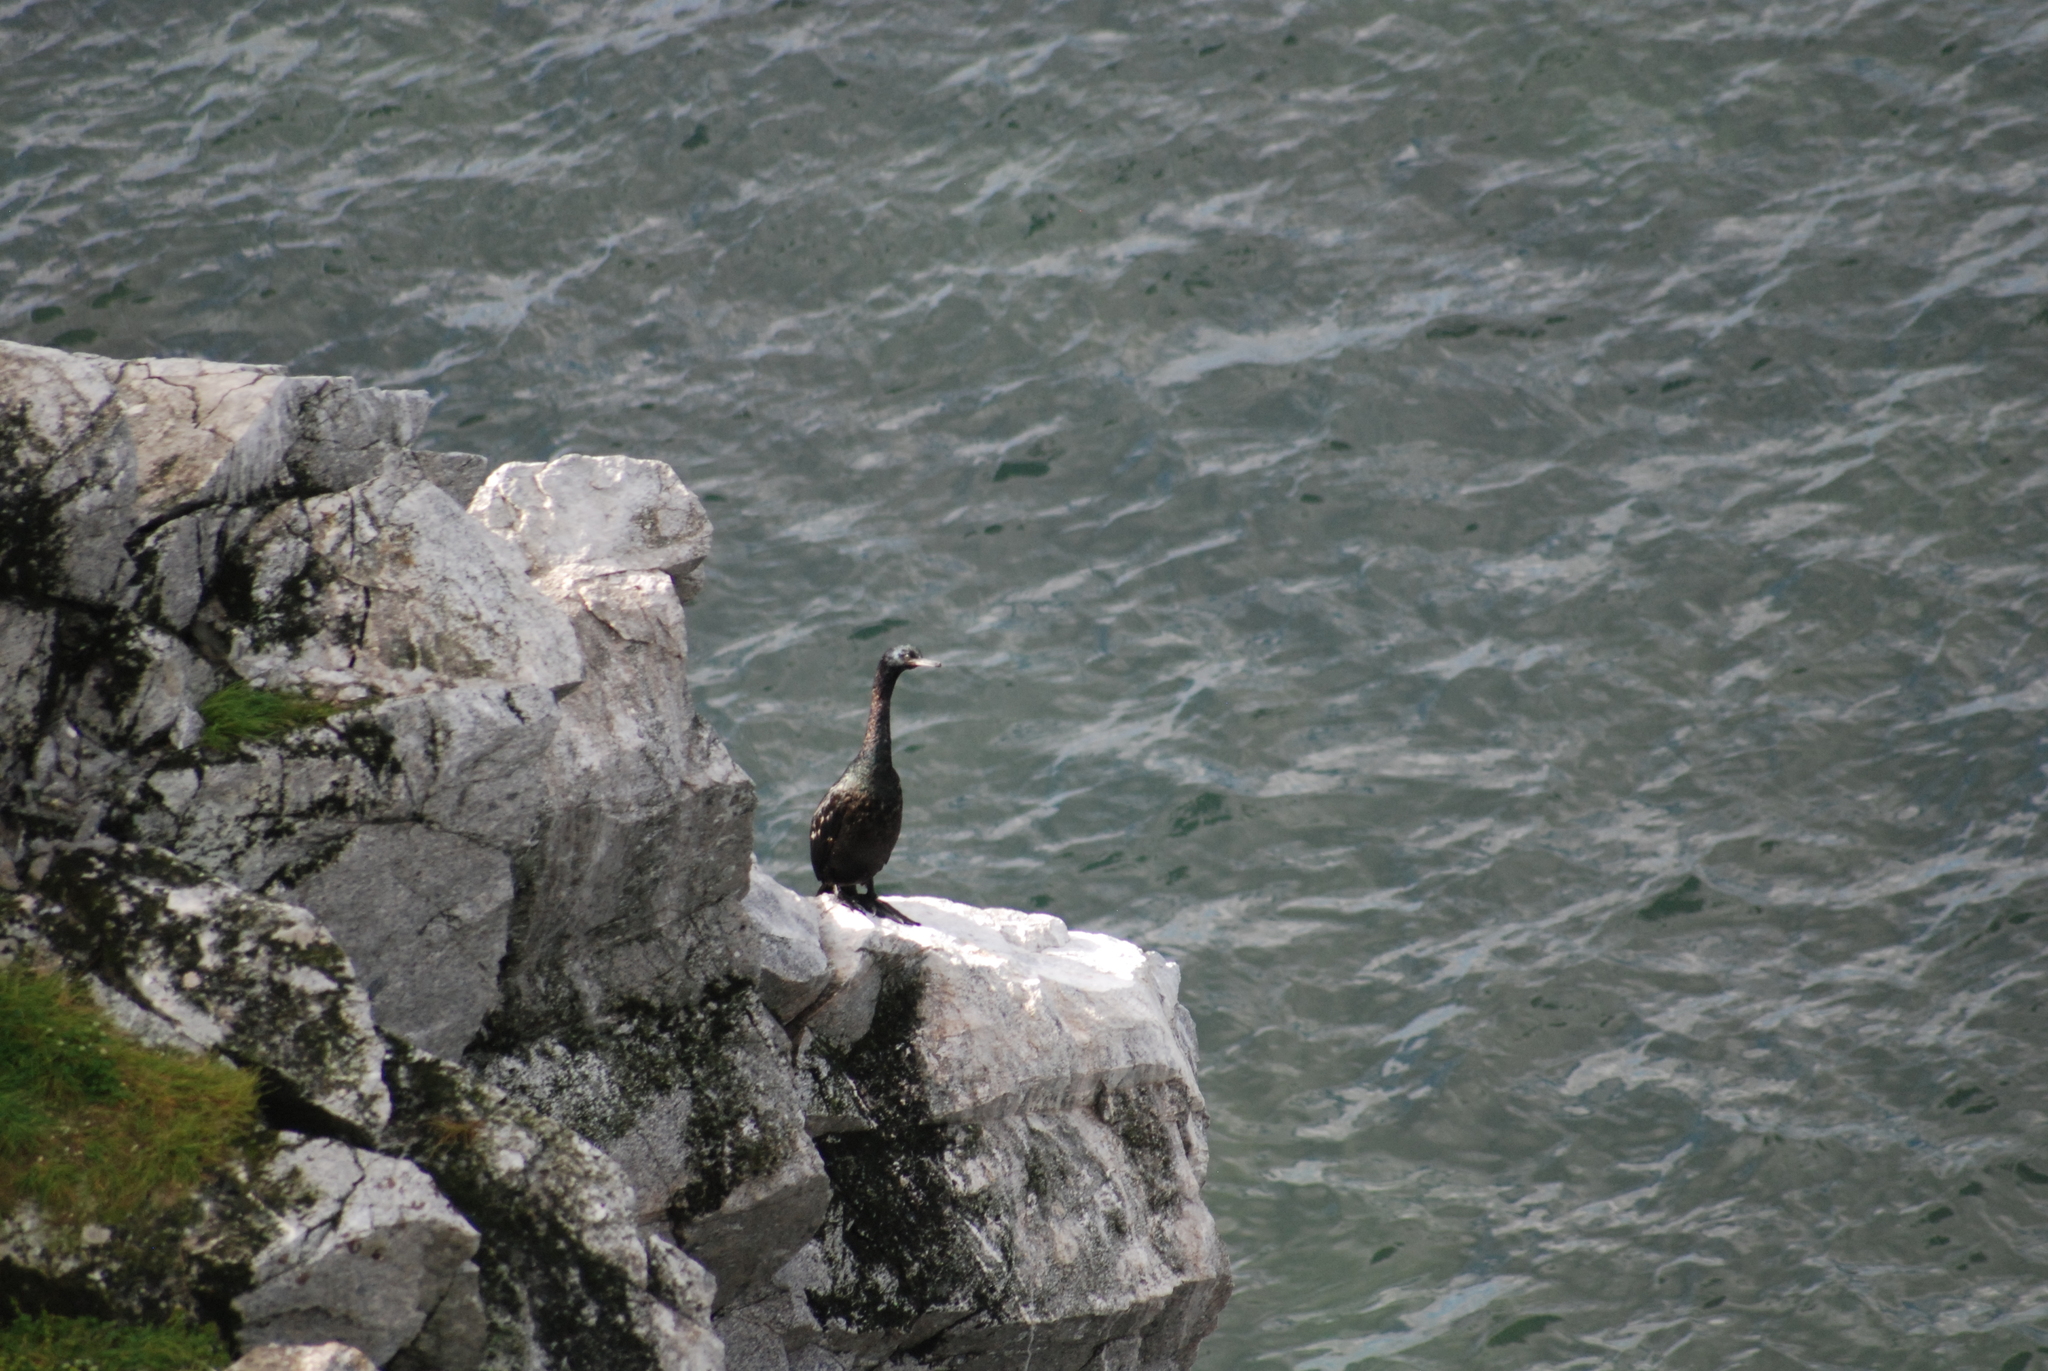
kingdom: Animalia
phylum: Chordata
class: Aves
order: Suliformes
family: Phalacrocoracidae
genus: Phalacrocorax
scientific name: Phalacrocorax pelagicus
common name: Pelagic cormorant
